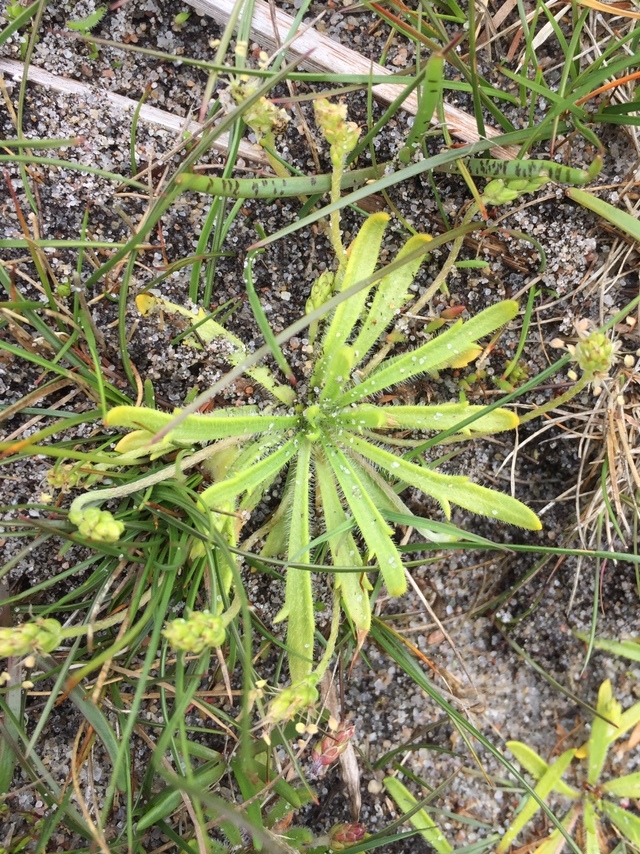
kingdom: Plantae
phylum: Tracheophyta
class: Magnoliopsida
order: Lamiales
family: Plantaginaceae
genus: Plantago
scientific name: Plantago coronopus
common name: Buck's-horn plantain
